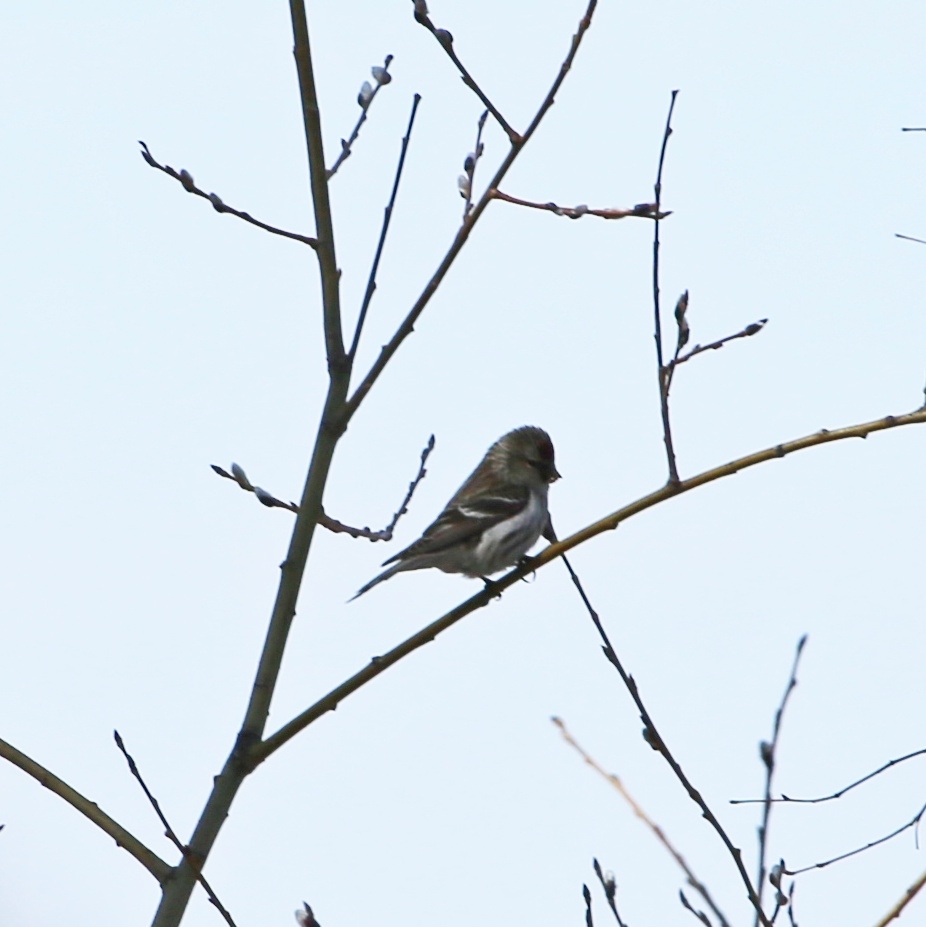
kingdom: Animalia
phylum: Chordata
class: Aves
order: Passeriformes
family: Fringillidae
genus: Acanthis
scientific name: Acanthis flammea
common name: Common redpoll
